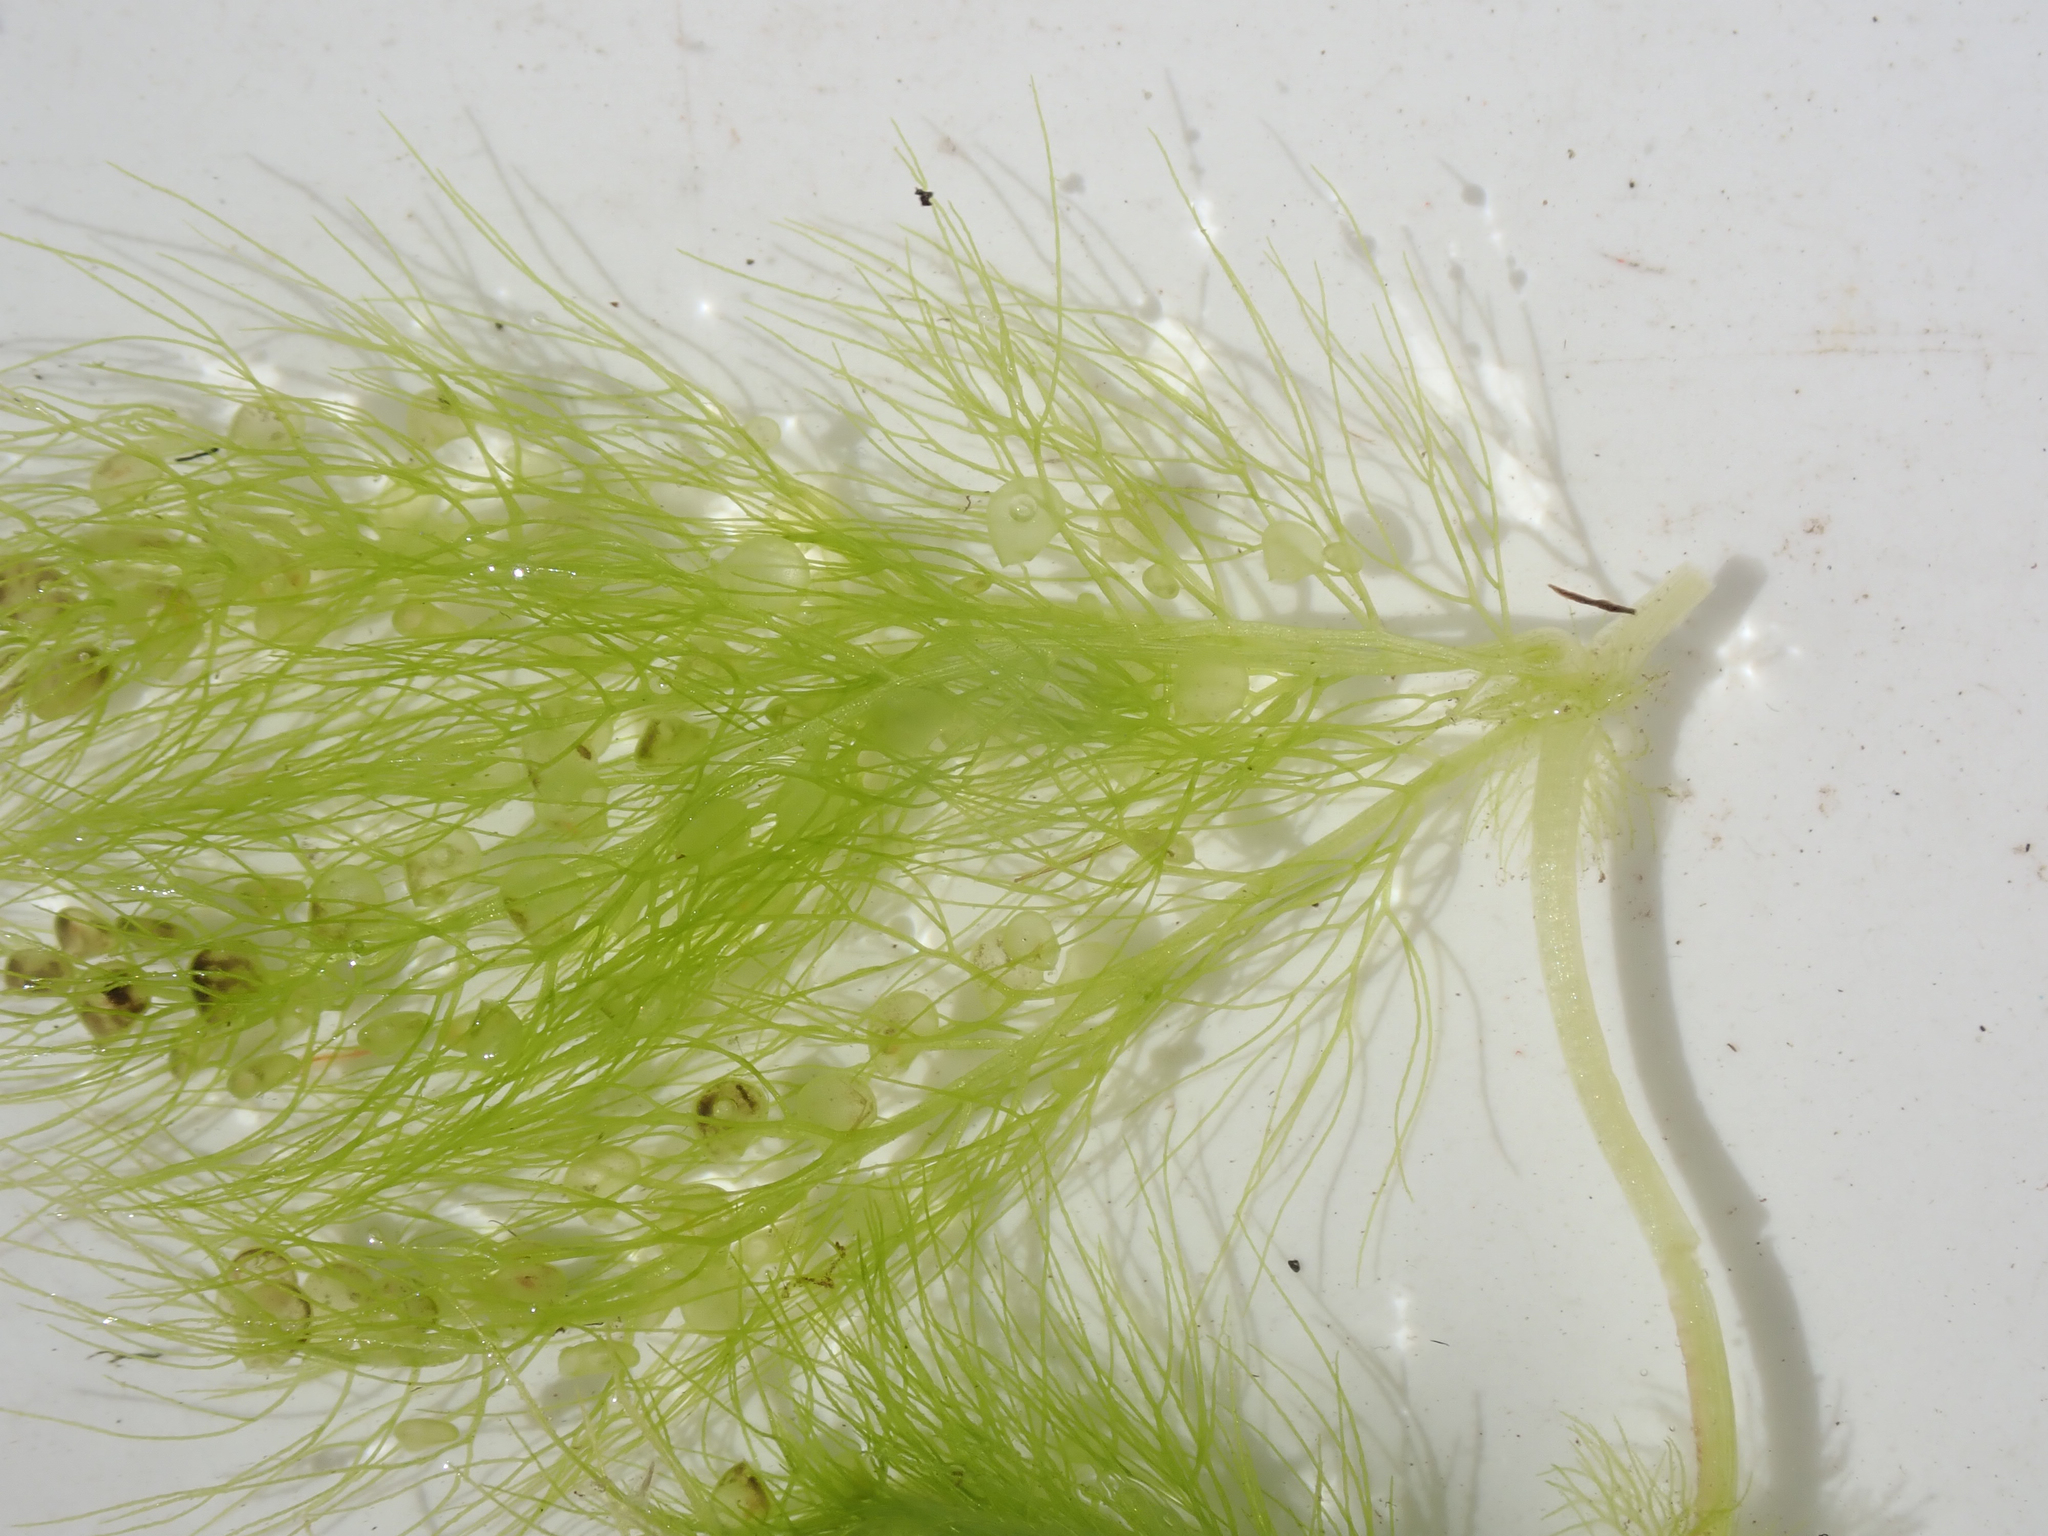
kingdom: Plantae
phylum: Tracheophyta
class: Magnoliopsida
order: Lamiales
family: Lentibulariaceae
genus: Utricularia
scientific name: Utricularia stellaris
